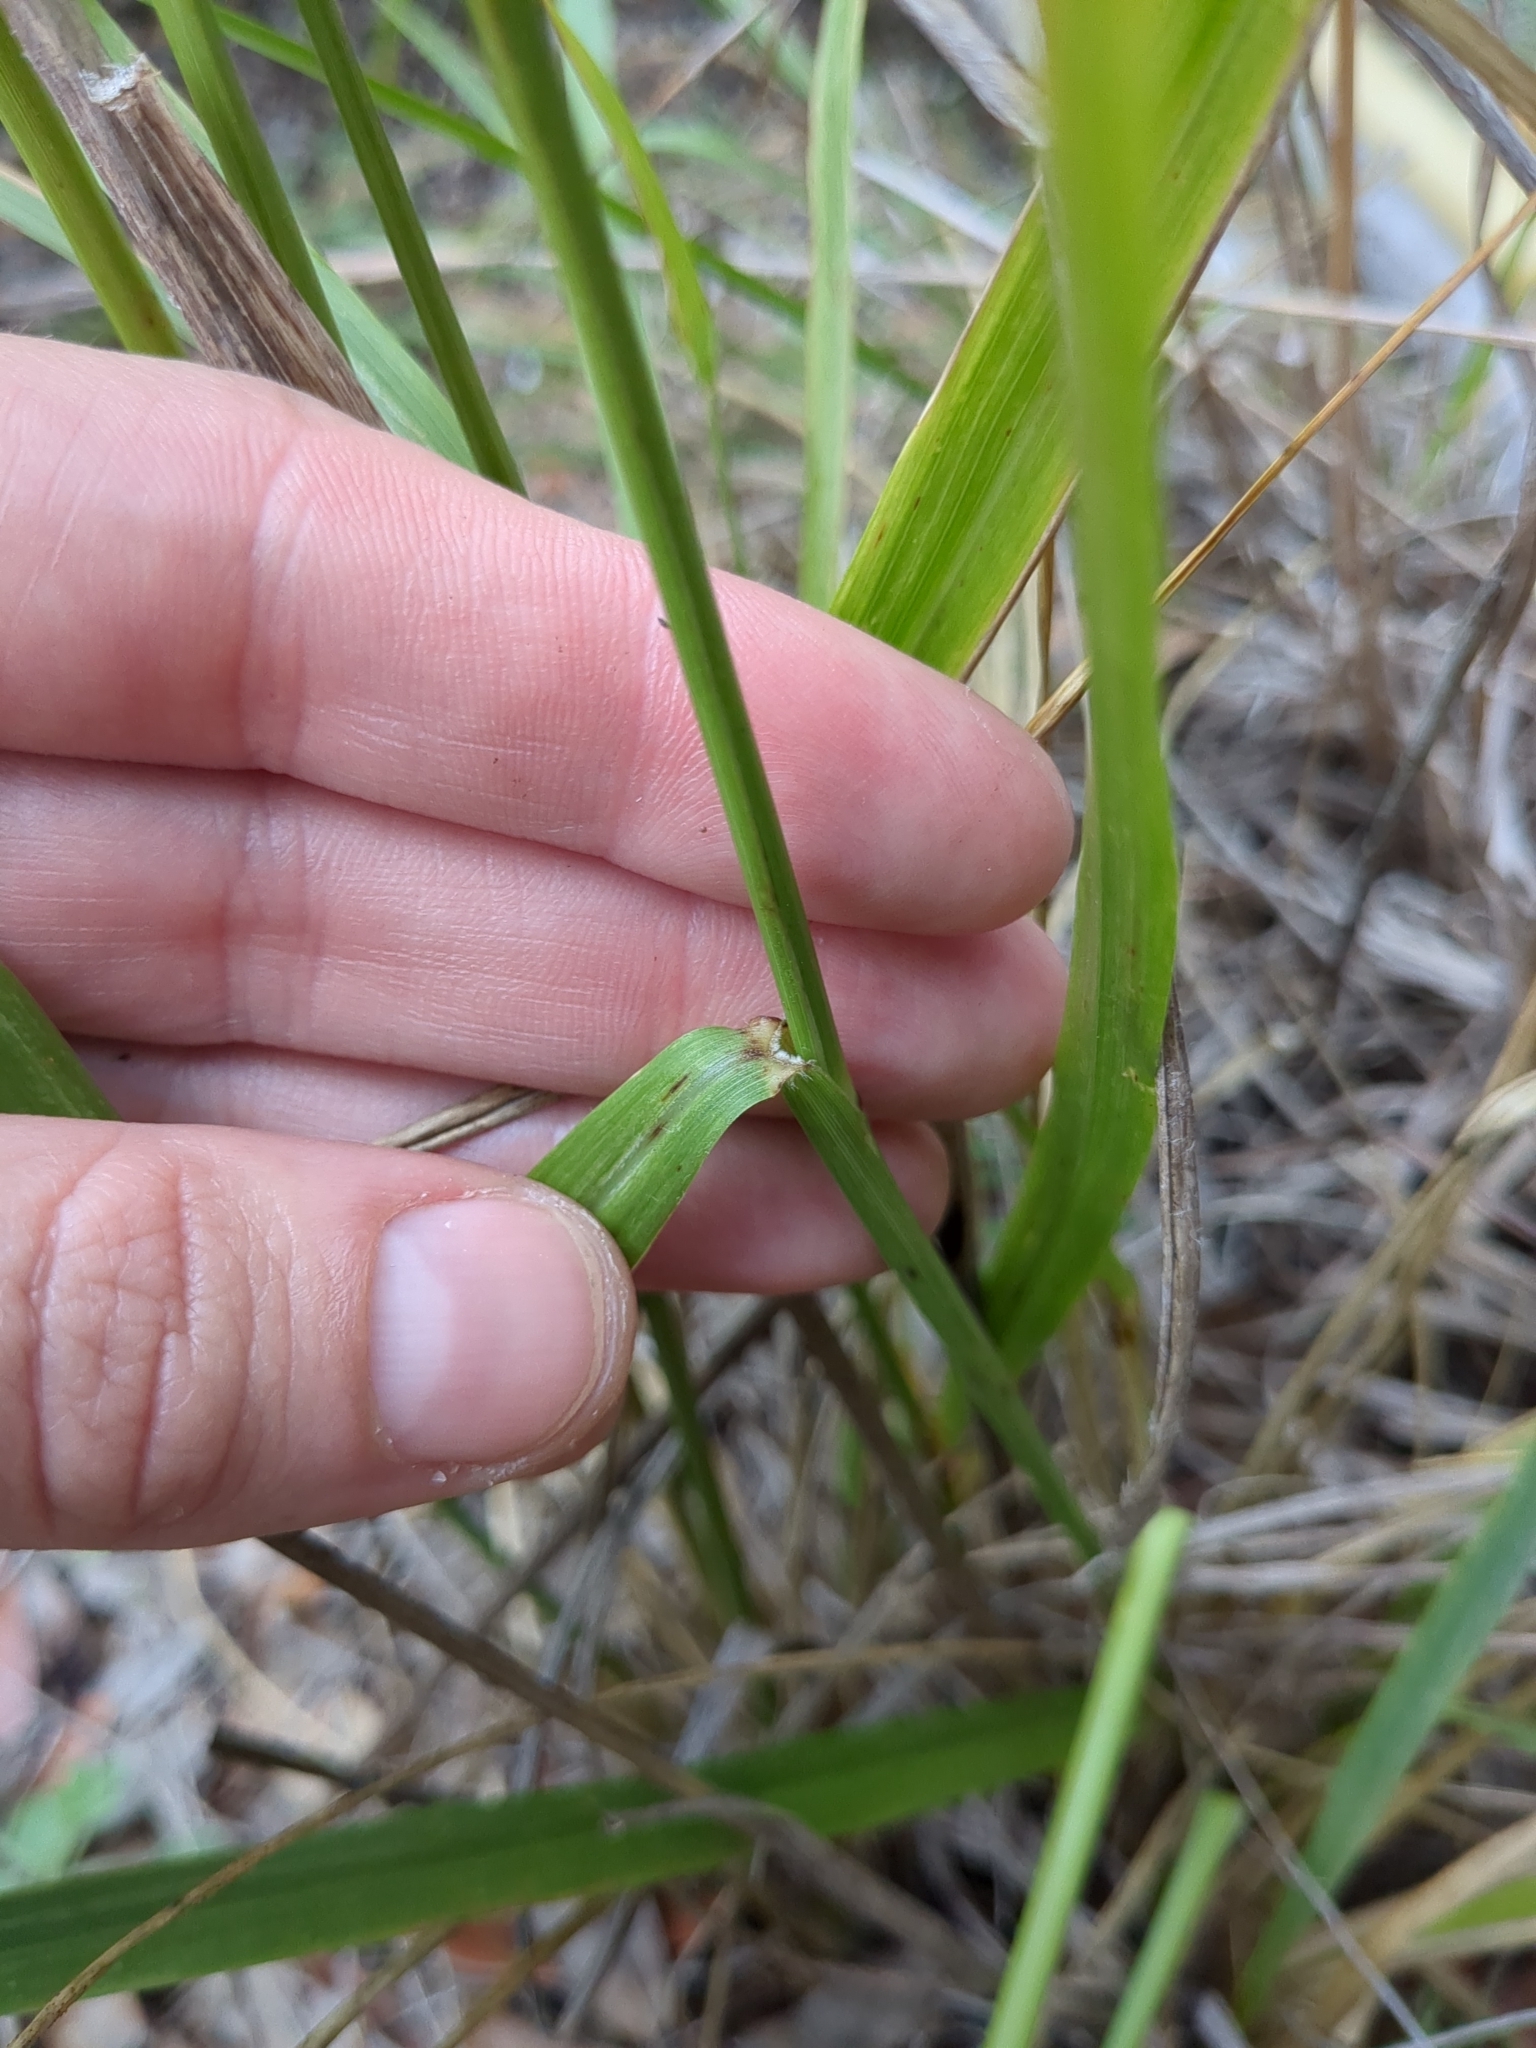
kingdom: Plantae
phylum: Tracheophyta
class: Liliopsida
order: Poales
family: Poaceae
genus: Tridens
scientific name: Tridens flavus
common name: Purpletop
